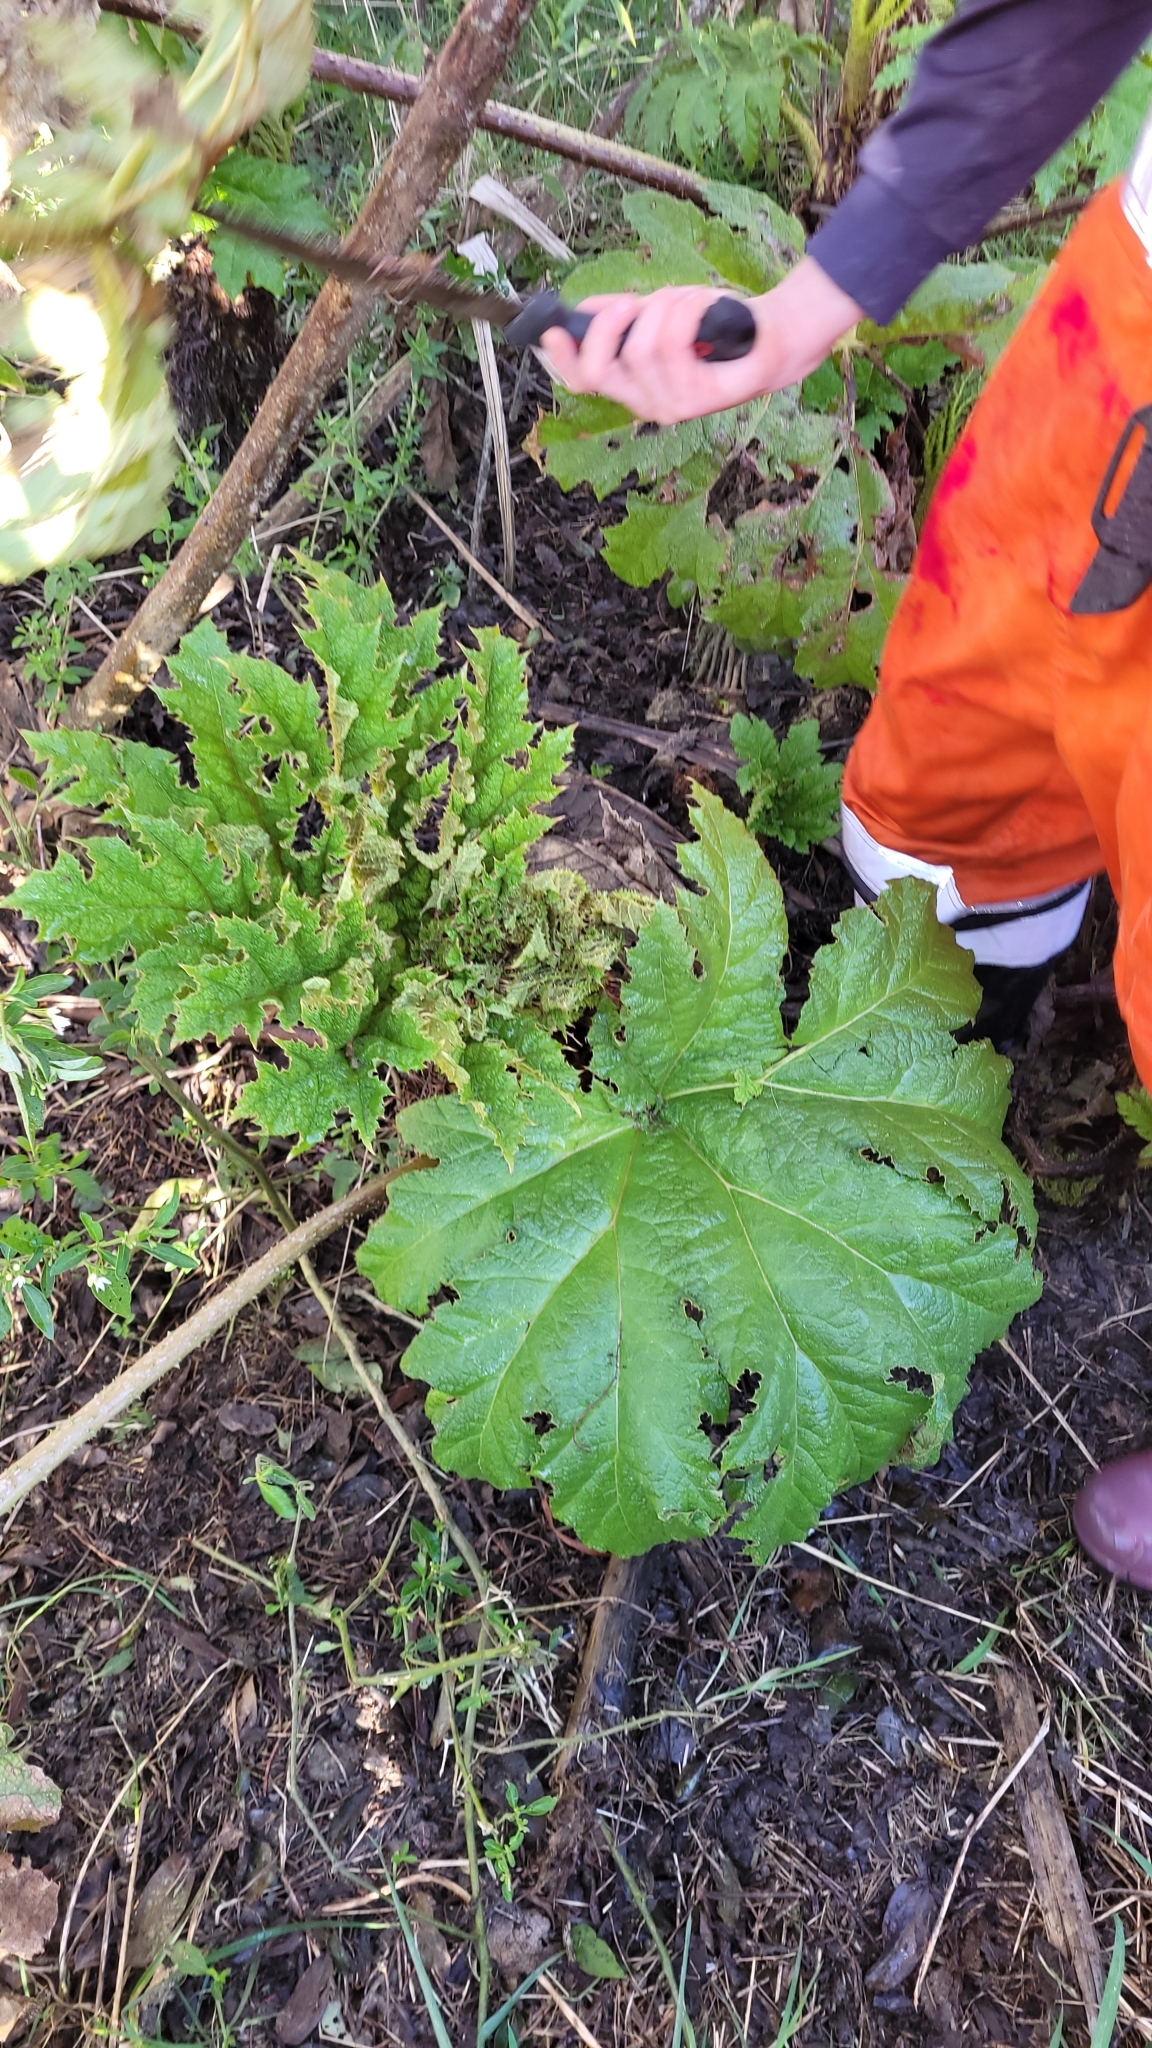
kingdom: Plantae
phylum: Tracheophyta
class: Magnoliopsida
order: Gunnerales
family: Gunneraceae
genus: Gunnera
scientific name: Gunnera tinctoria
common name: Giant-rhubarb
